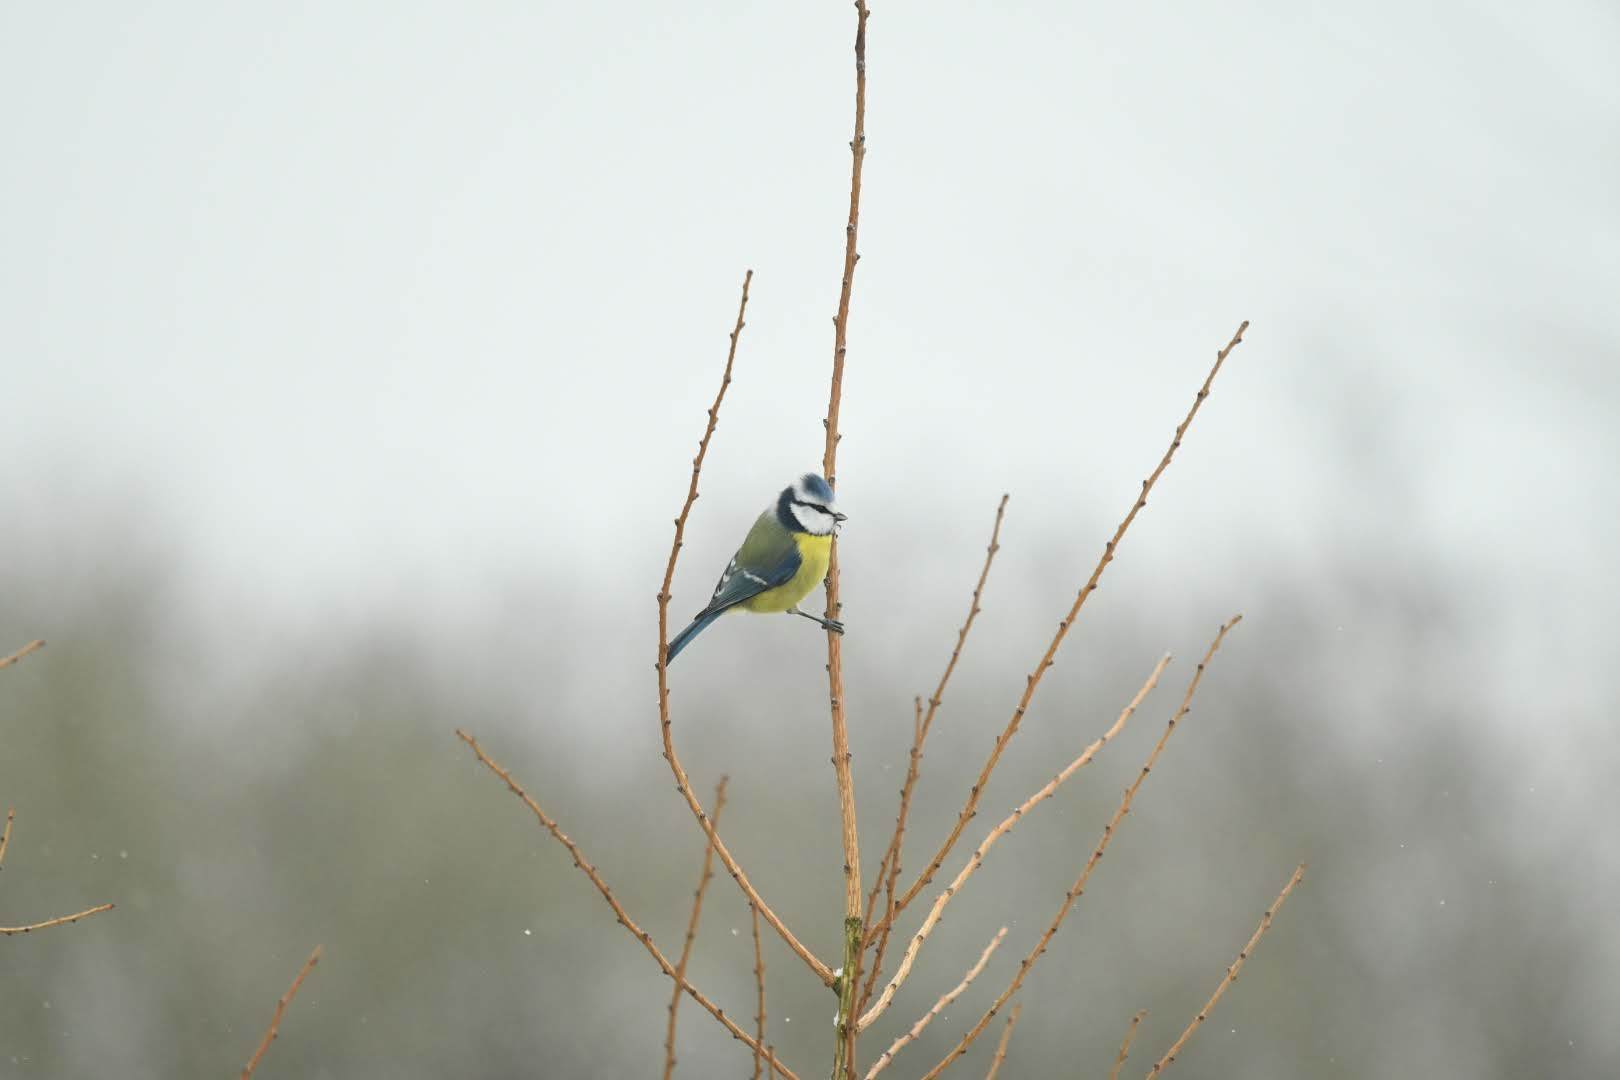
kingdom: Animalia
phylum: Chordata
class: Aves
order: Passeriformes
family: Paridae
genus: Cyanistes
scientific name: Cyanistes caeruleus
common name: Eurasian blue tit
